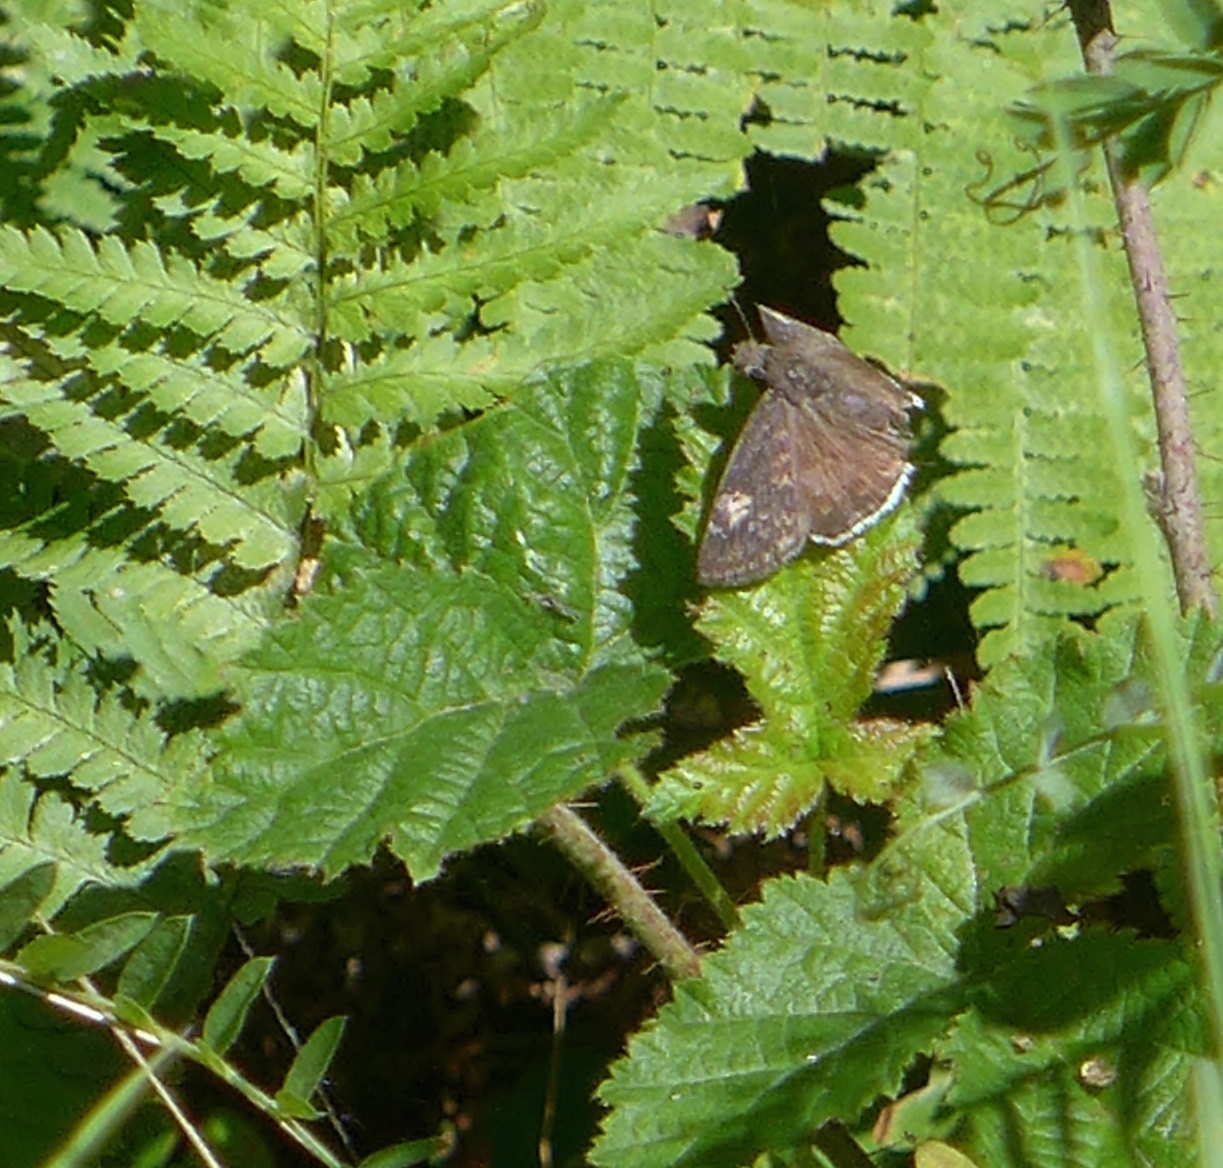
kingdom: Animalia
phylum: Arthropoda
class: Insecta
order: Lepidoptera
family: Hesperiidae
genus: Erynnis
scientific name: Erynnis funeralis
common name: Funereal duskywing
